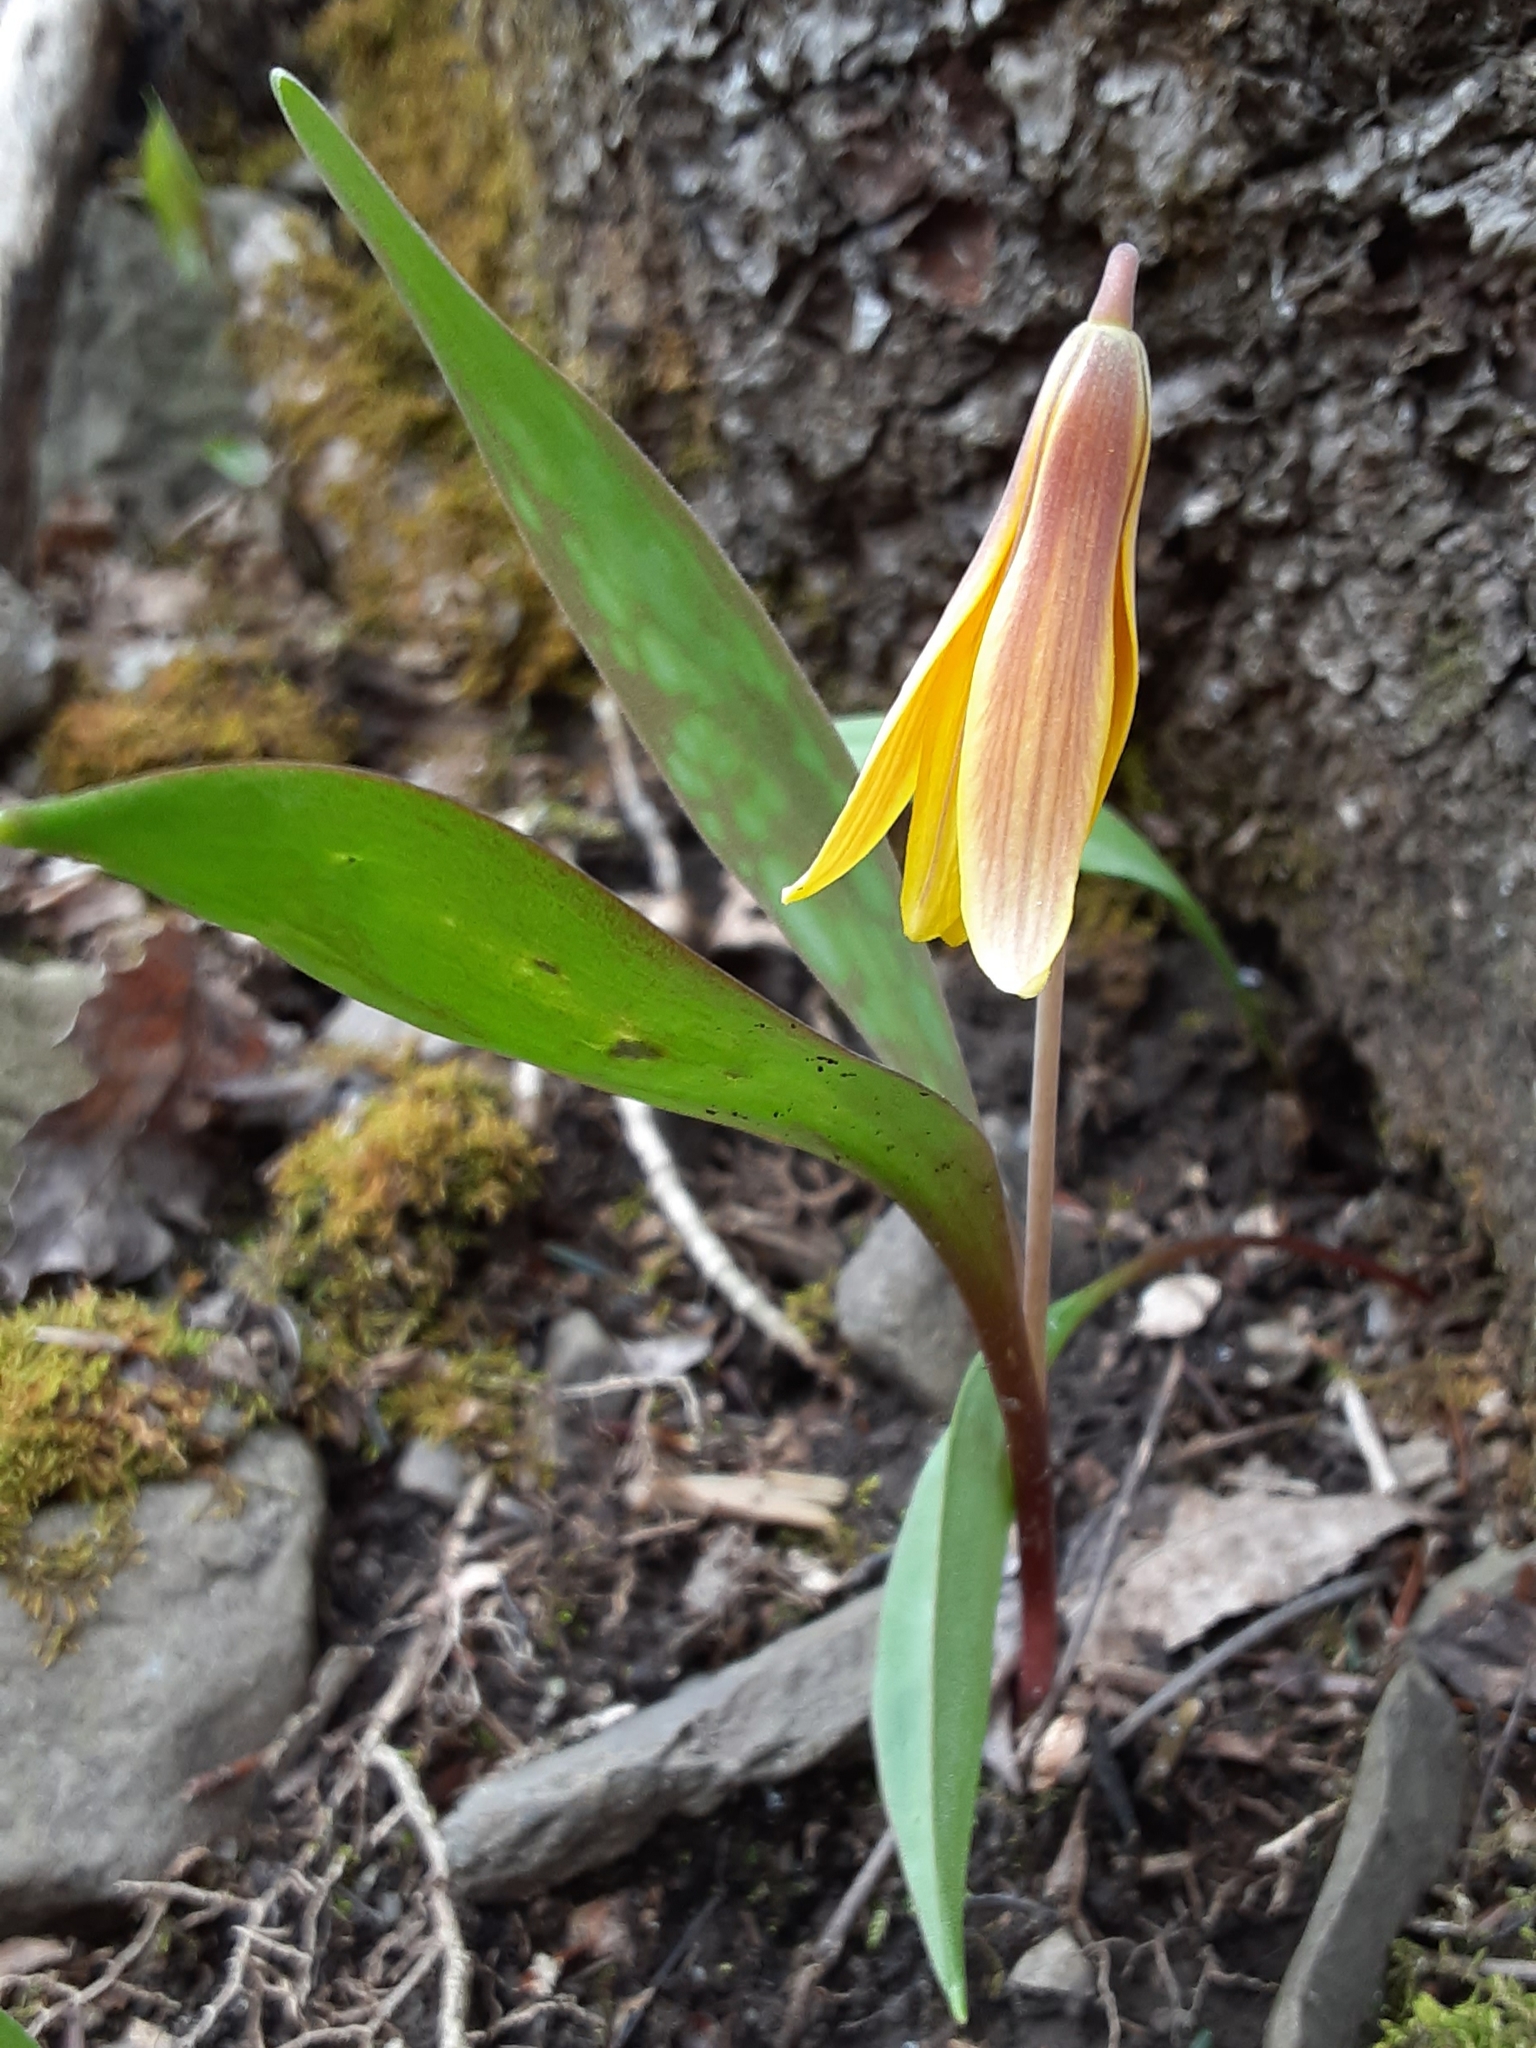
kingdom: Plantae
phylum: Tracheophyta
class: Liliopsida
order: Liliales
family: Liliaceae
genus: Erythronium
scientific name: Erythronium americanum
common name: Yellow adder's-tongue
